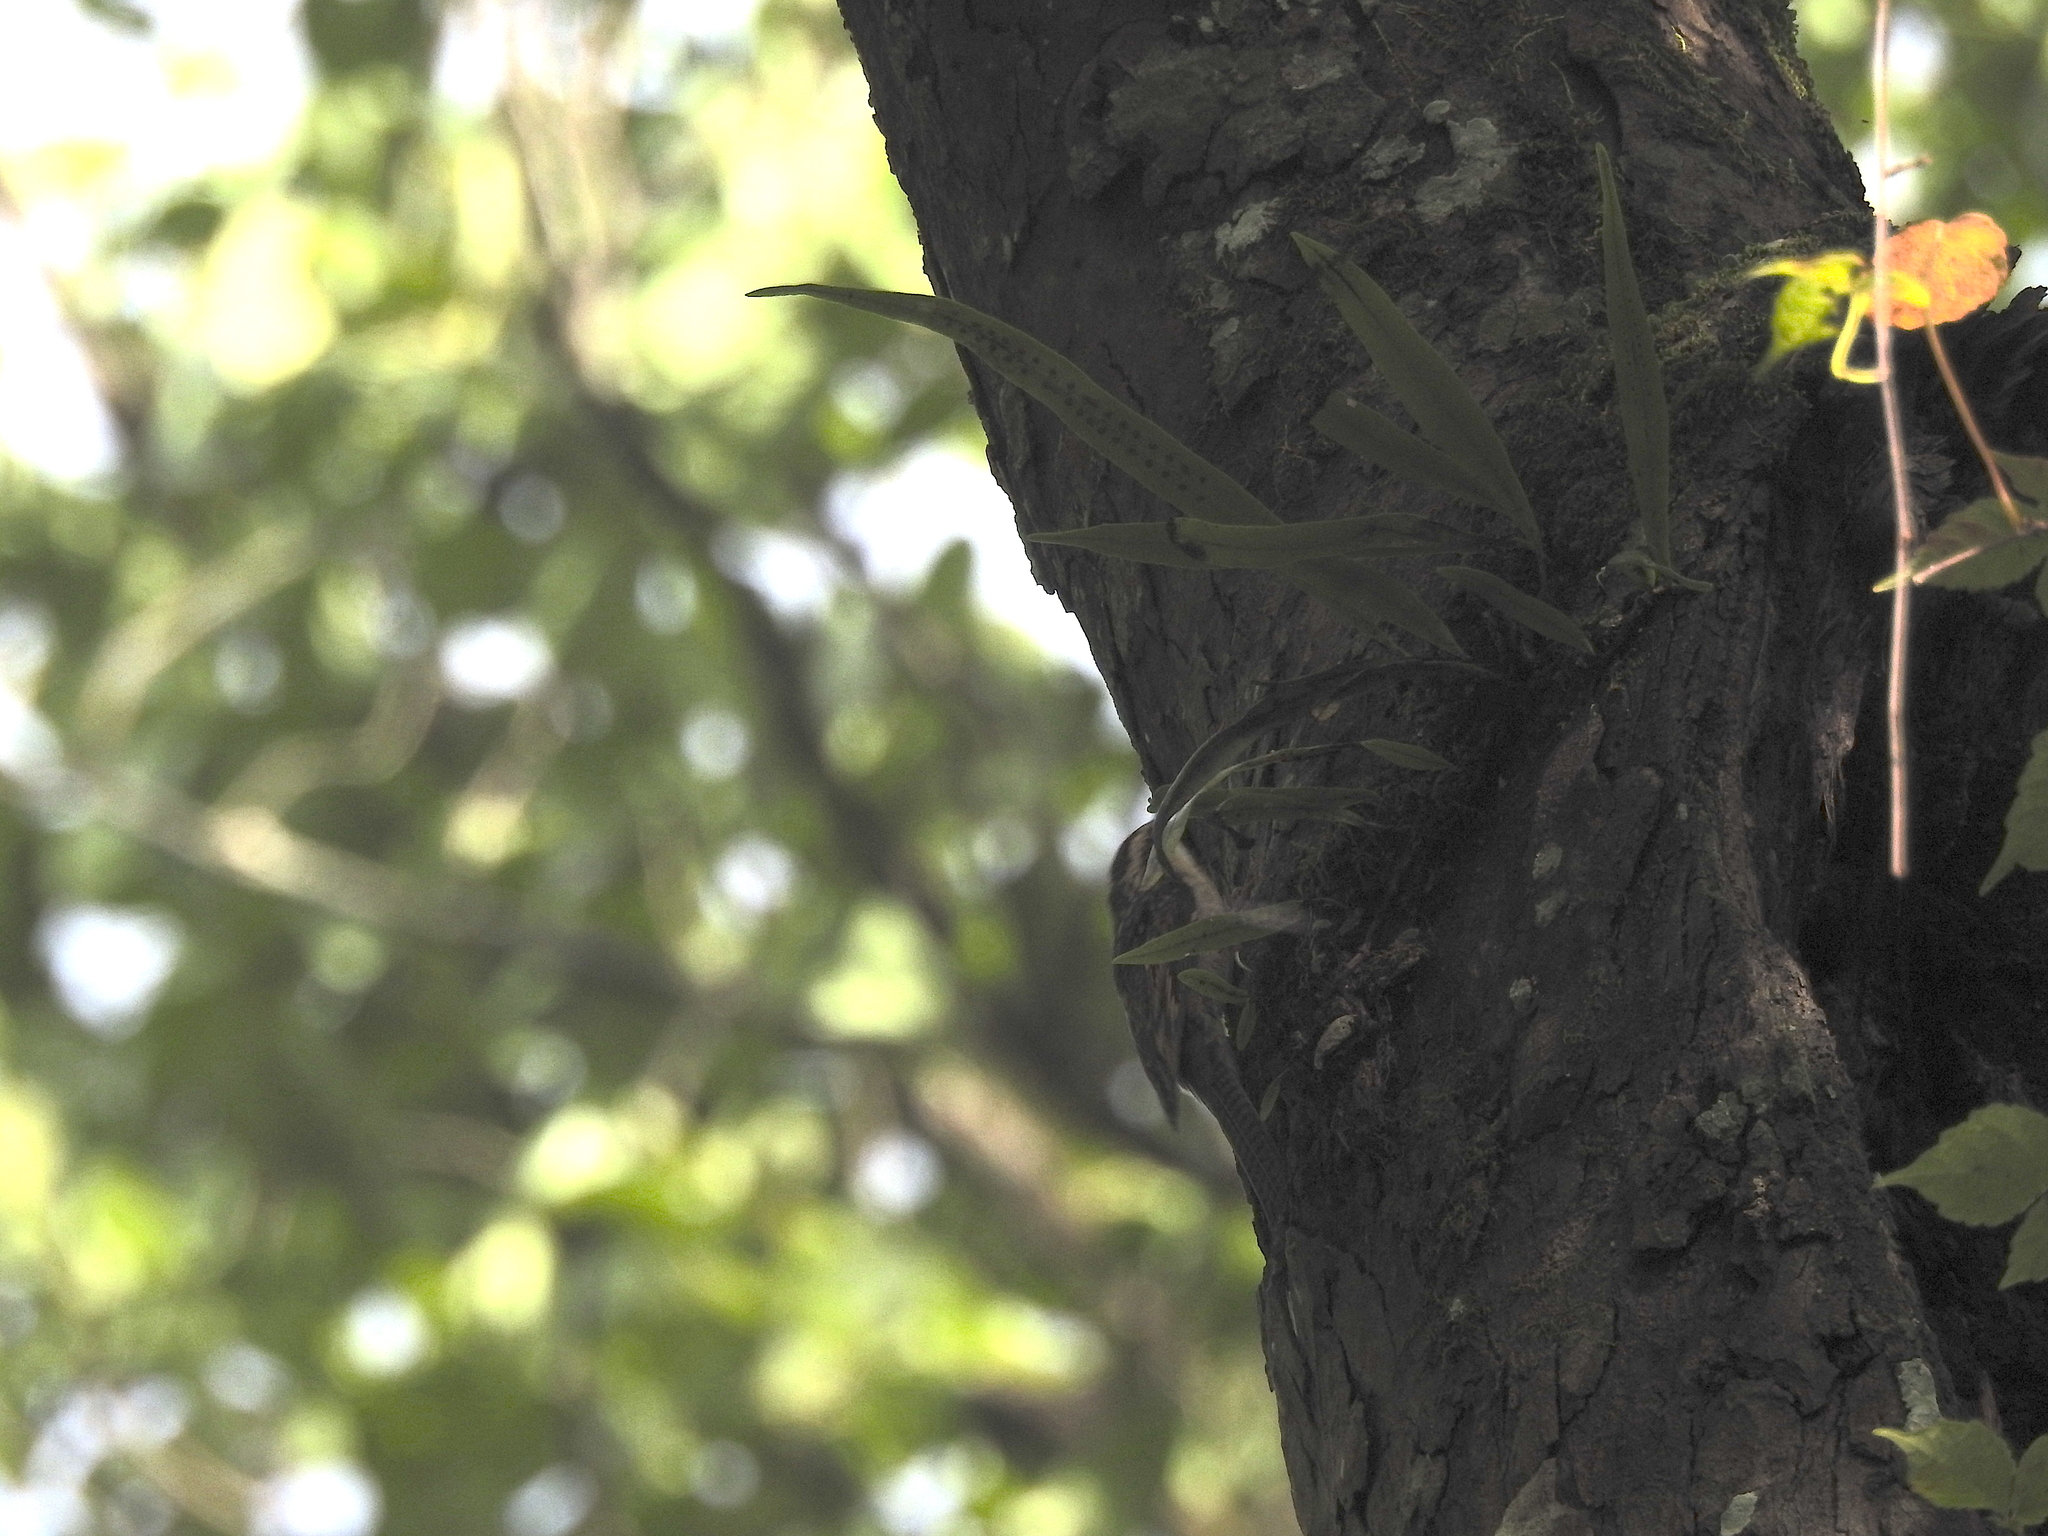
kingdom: Animalia
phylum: Chordata
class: Aves
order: Passeriformes
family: Certhiidae
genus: Certhia
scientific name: Certhia himalayana
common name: Bar-tailed treecreeper
